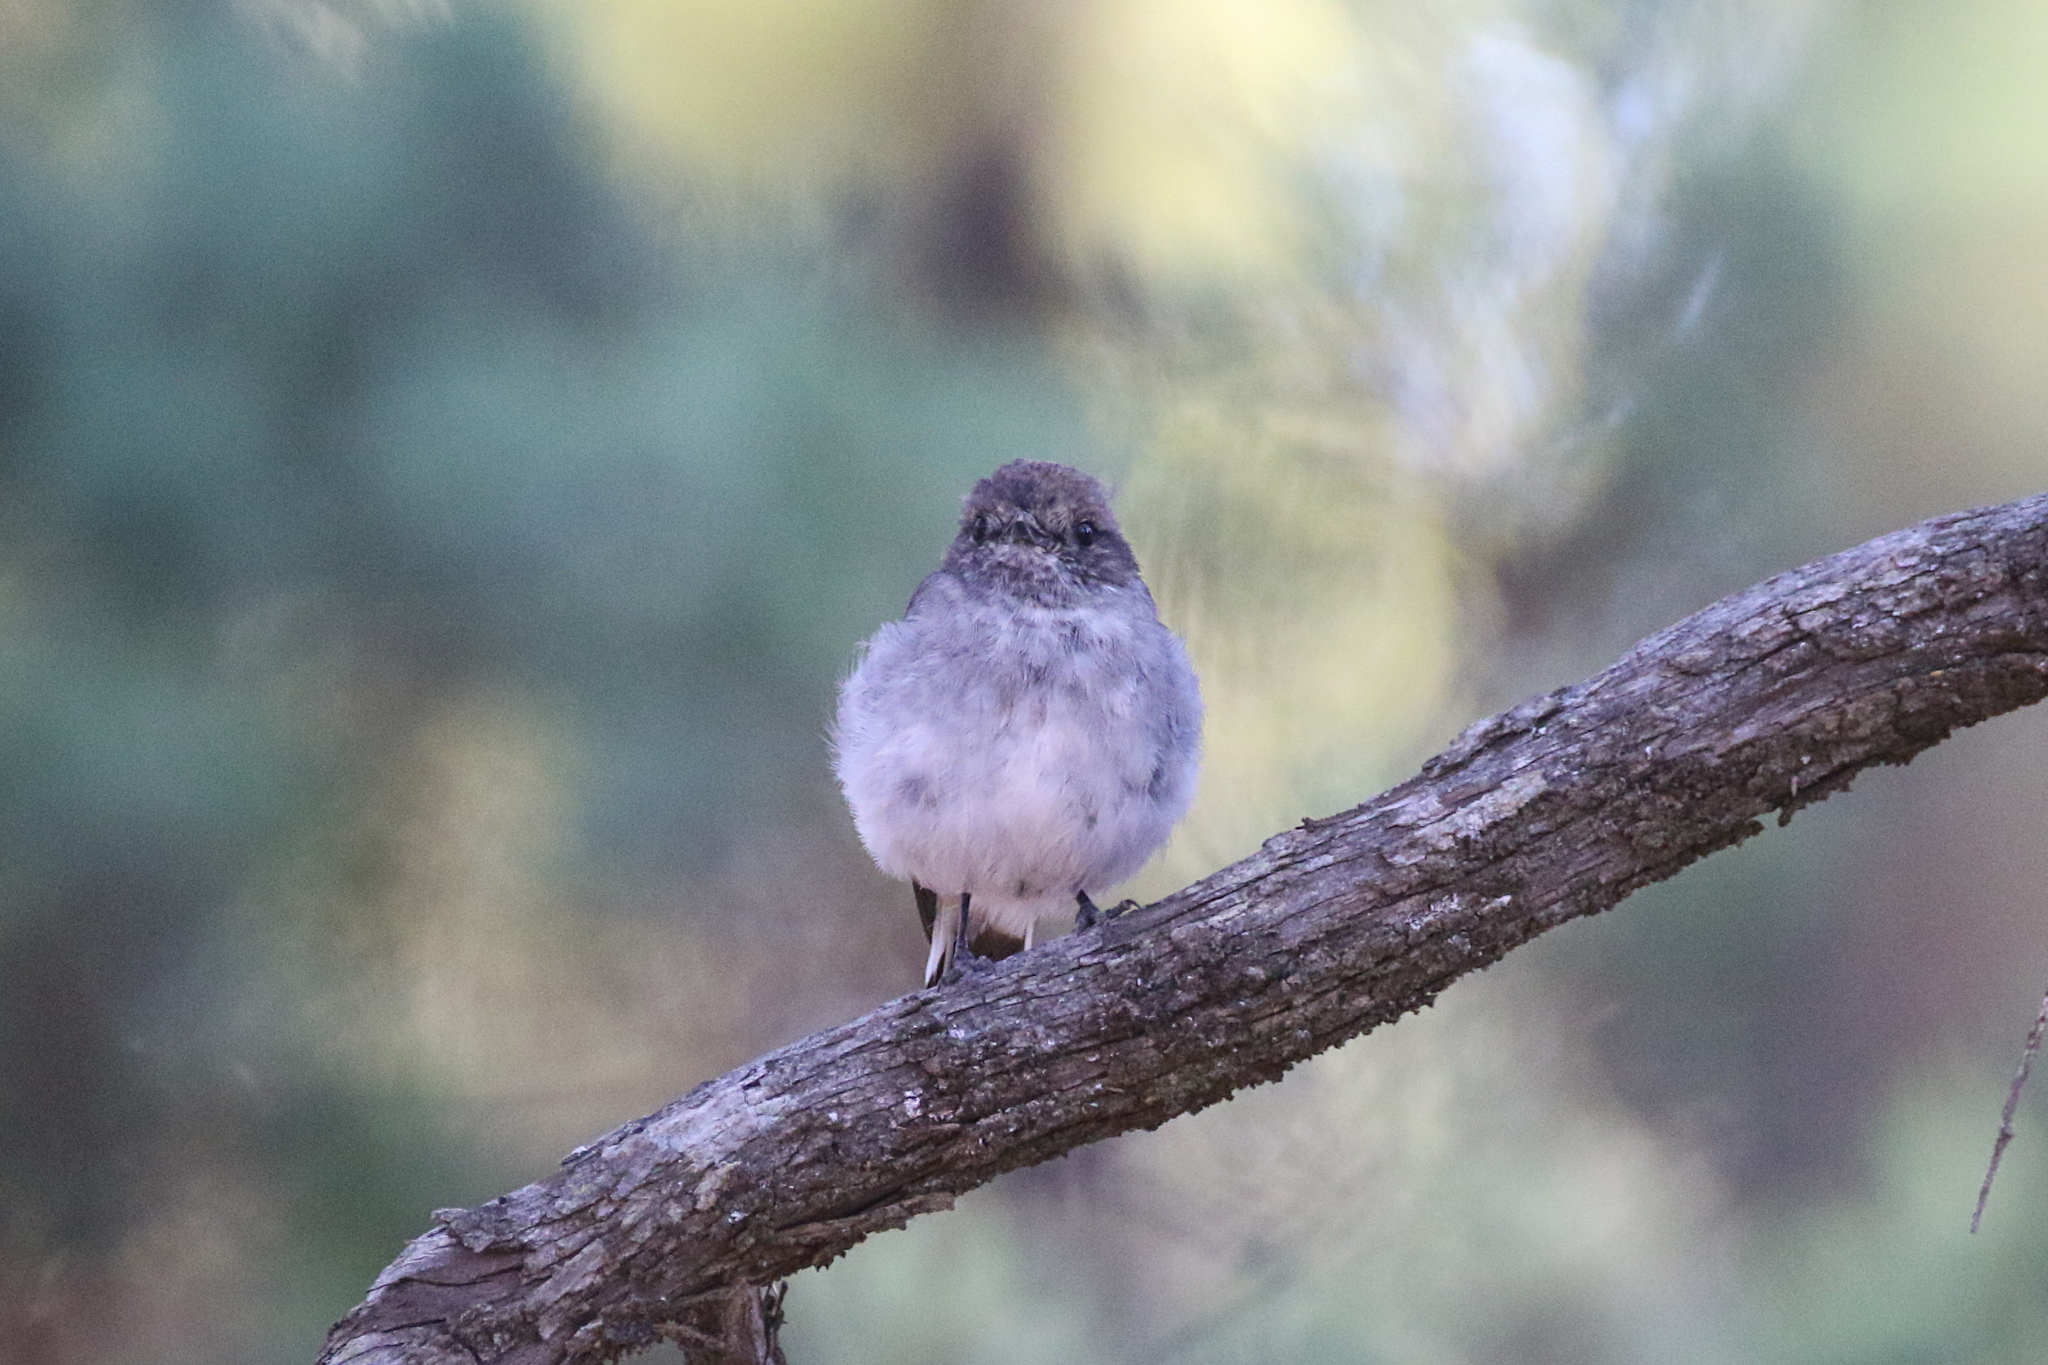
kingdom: Animalia
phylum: Chordata
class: Aves
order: Passeriformes
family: Petroicidae
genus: Melanodryas
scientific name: Melanodryas cucullata
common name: Hooded robin
